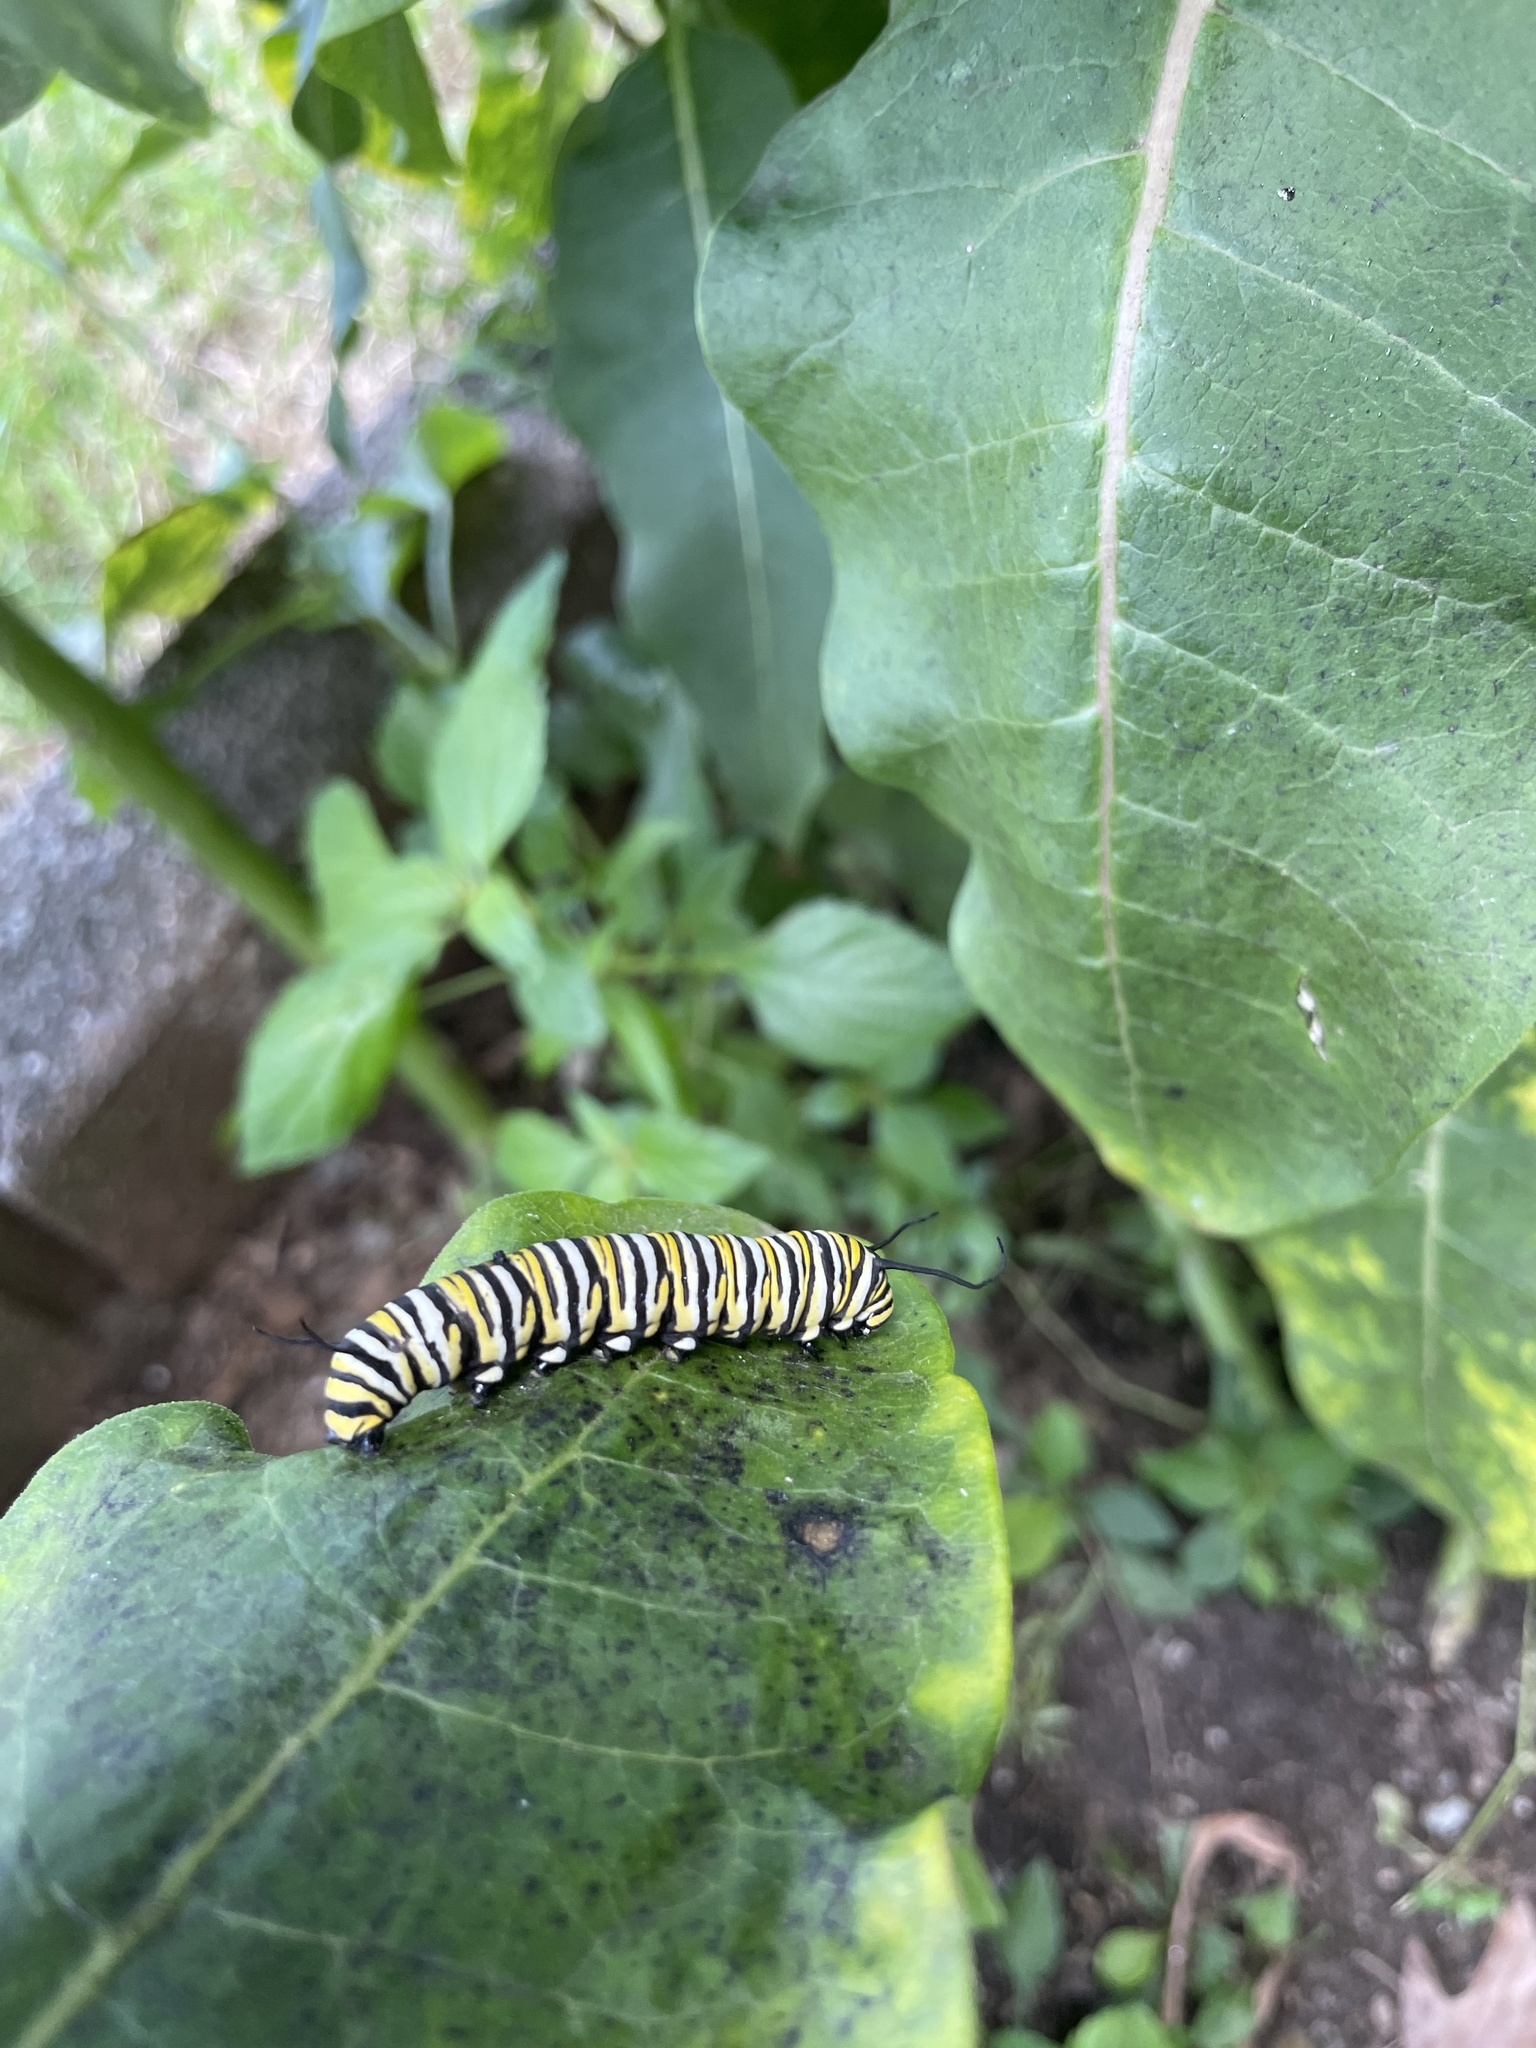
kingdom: Animalia
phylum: Arthropoda
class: Insecta
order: Lepidoptera
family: Nymphalidae
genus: Danaus
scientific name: Danaus plexippus
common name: Monarch
